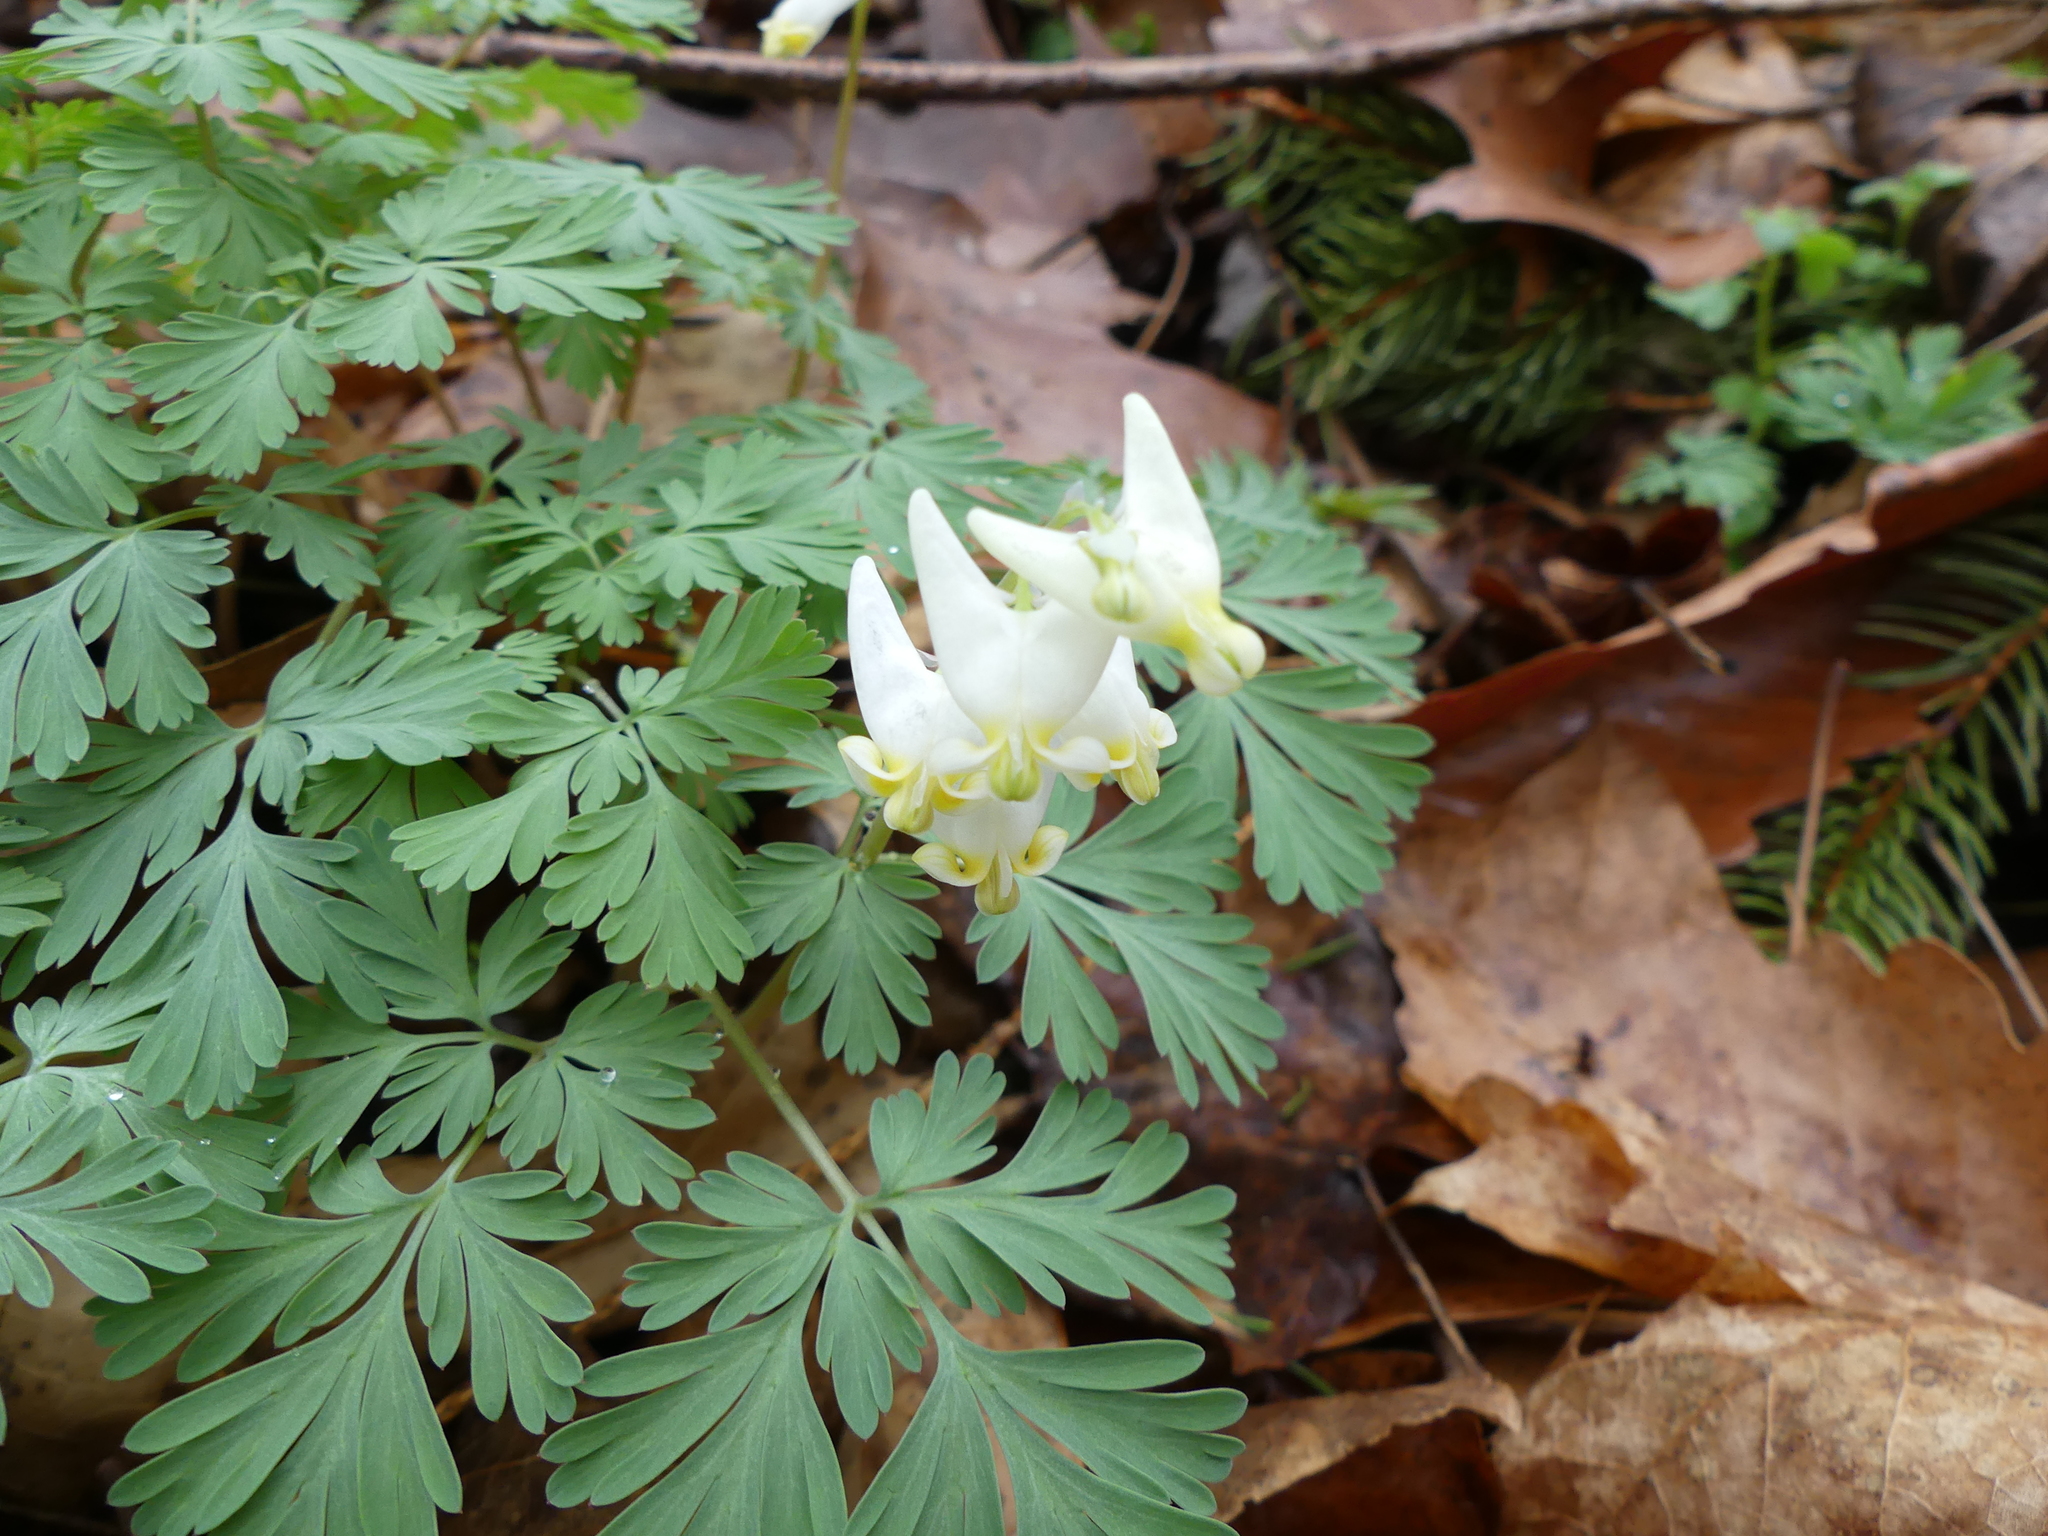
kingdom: Plantae
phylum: Tracheophyta
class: Magnoliopsida
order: Ranunculales
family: Papaveraceae
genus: Dicentra
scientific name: Dicentra cucullaria
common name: Dutchman's breeches
